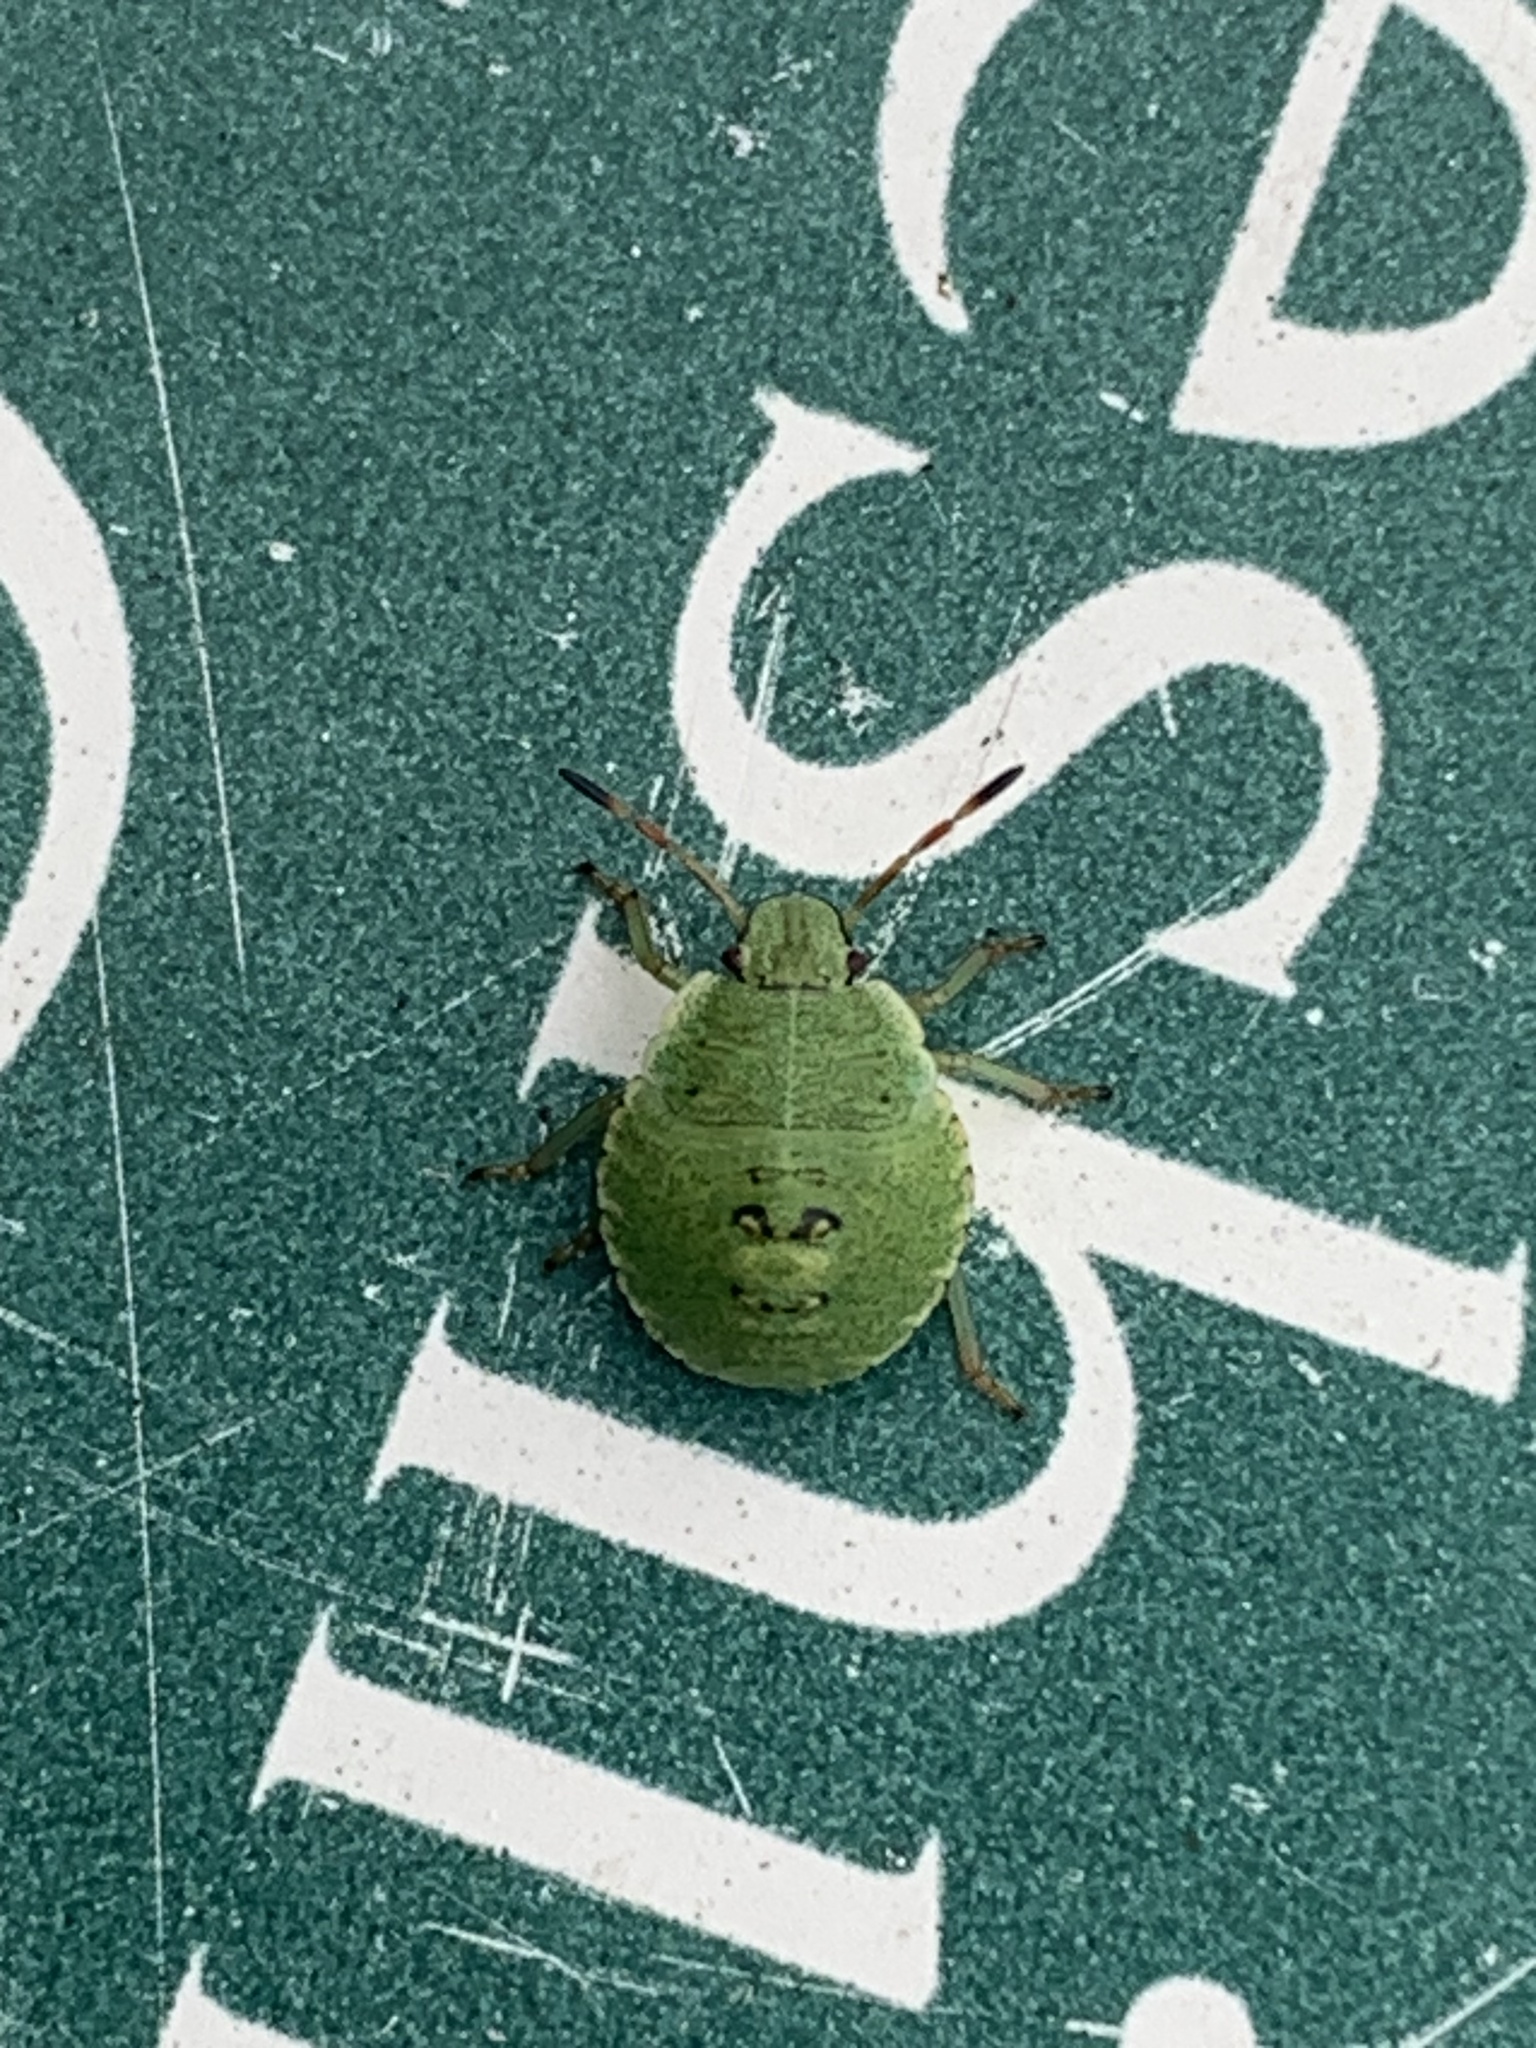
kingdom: Animalia
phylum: Arthropoda
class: Insecta
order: Hemiptera
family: Pentatomidae
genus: Palomena
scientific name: Palomena prasina
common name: Green shieldbug
